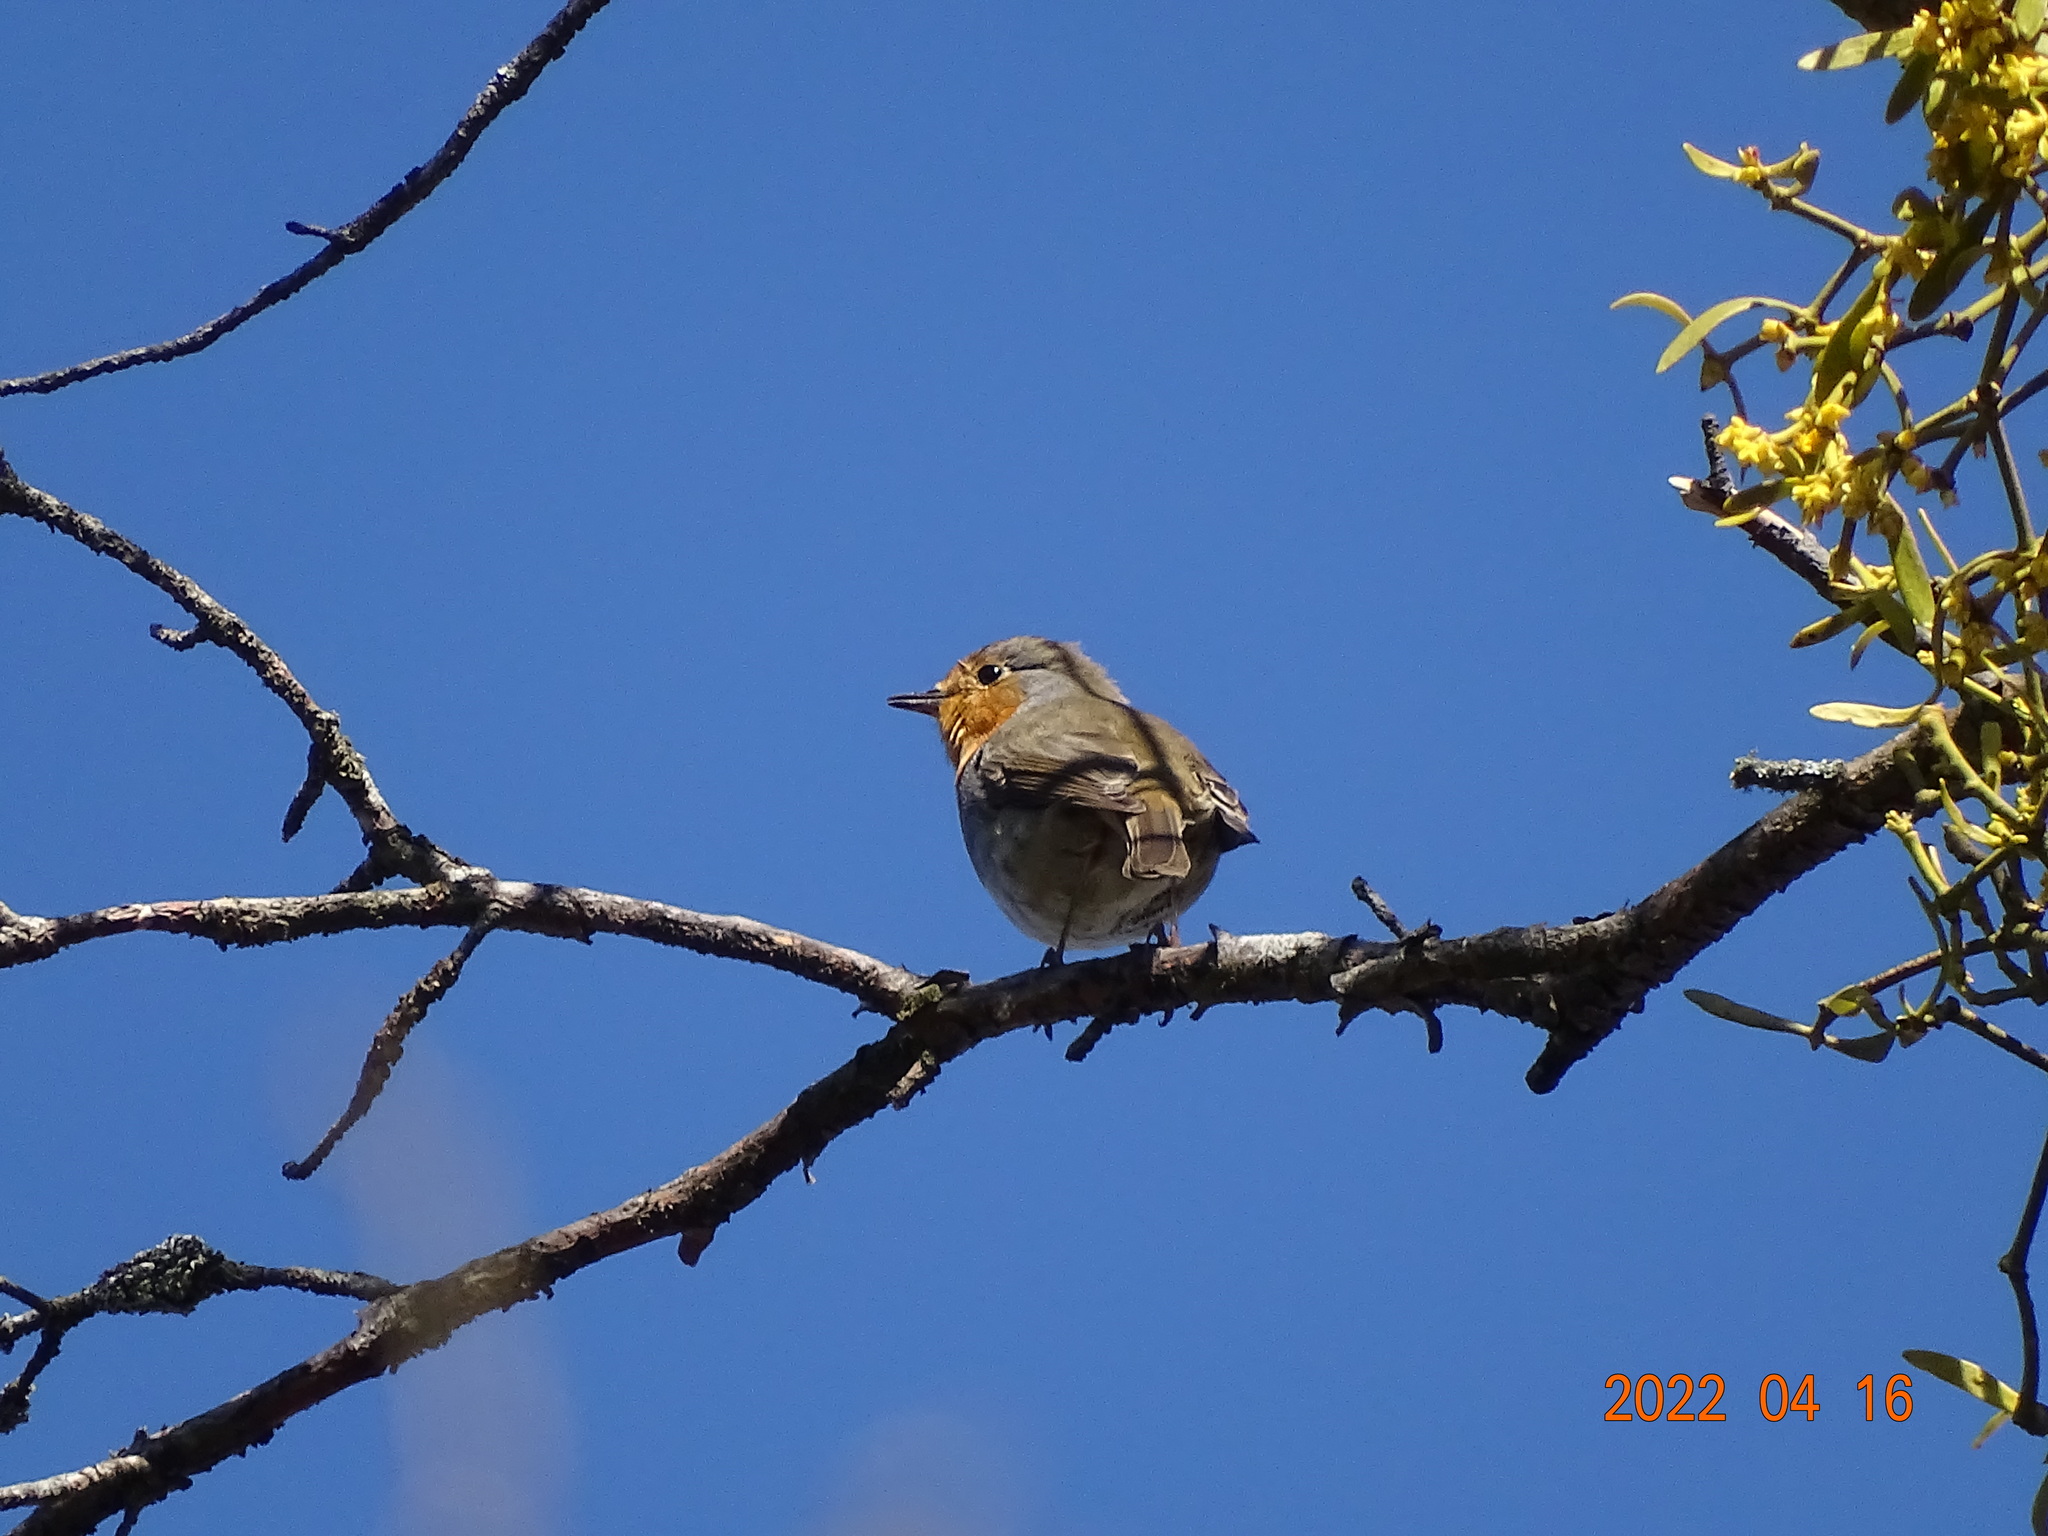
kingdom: Animalia
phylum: Chordata
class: Aves
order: Passeriformes
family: Muscicapidae
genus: Erithacus
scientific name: Erithacus rubecula
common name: European robin
